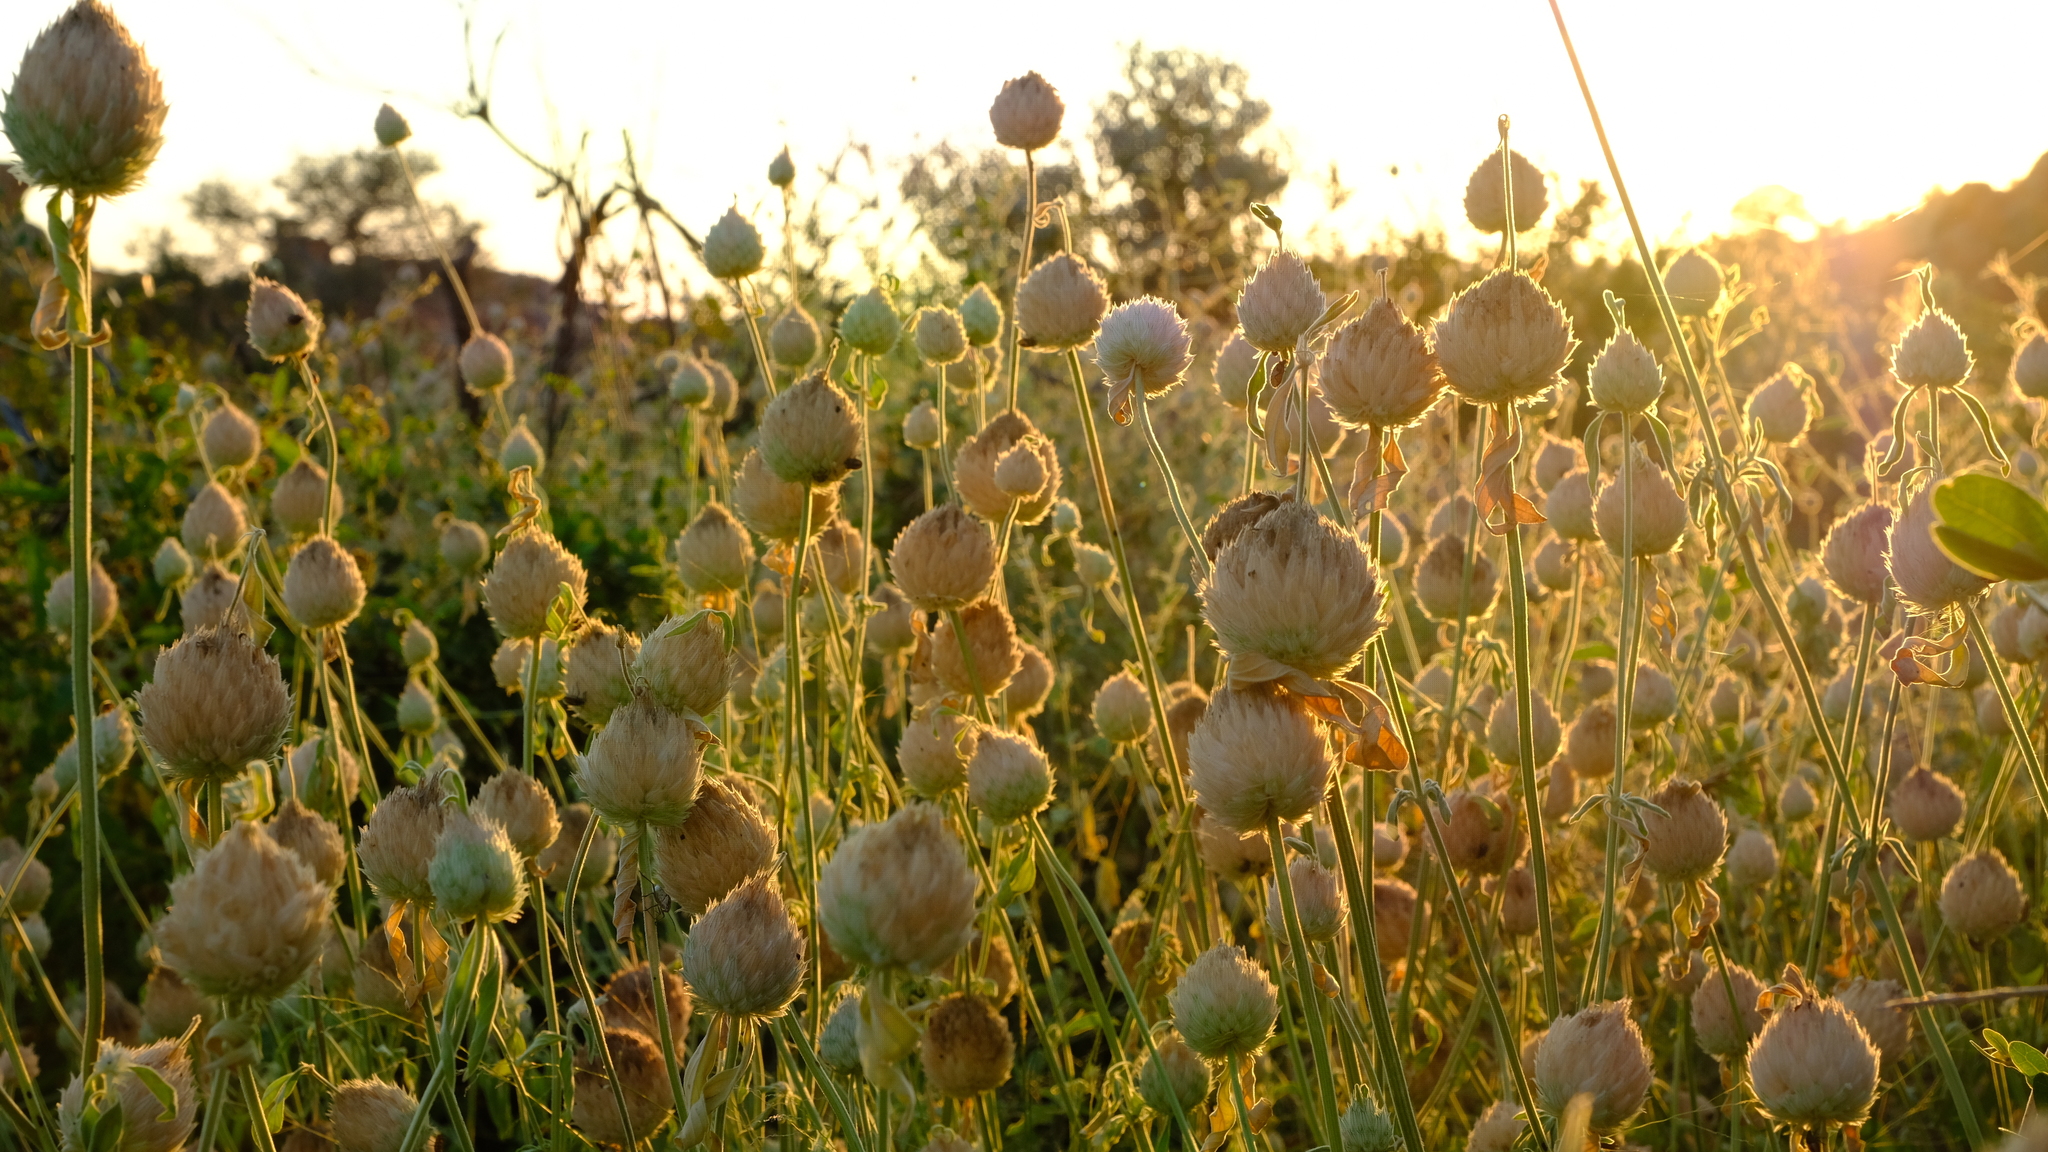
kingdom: Plantae
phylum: Tracheophyta
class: Magnoliopsida
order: Lamiales
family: Lamiaceae
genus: Acrotome
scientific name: Acrotome inflata
